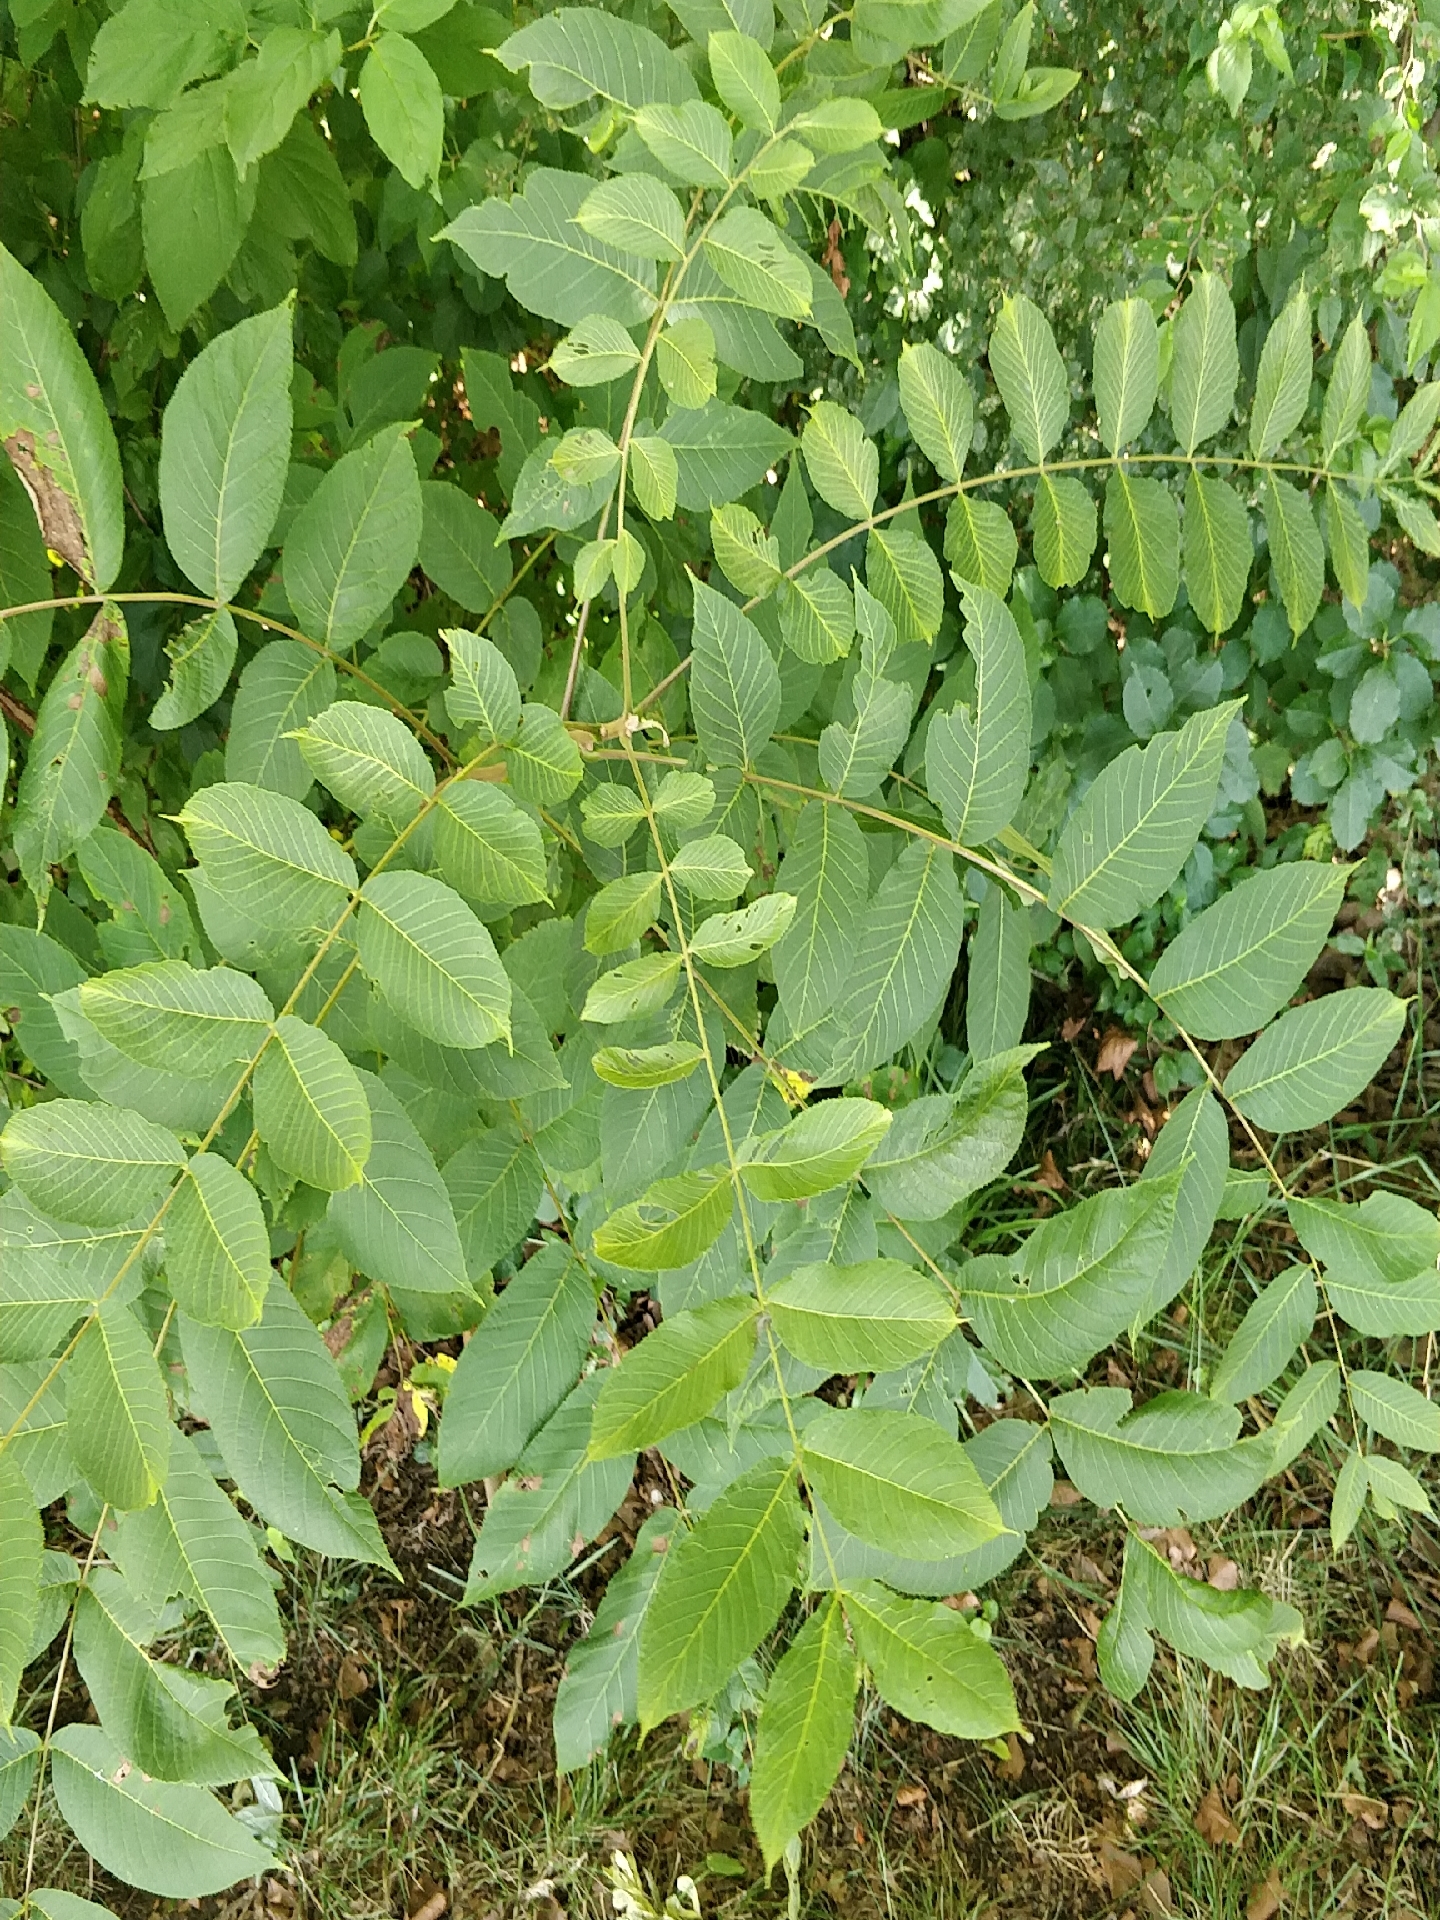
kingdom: Plantae
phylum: Tracheophyta
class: Magnoliopsida
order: Fagales
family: Juglandaceae
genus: Juglans
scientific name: Juglans nigra
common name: Black walnut
